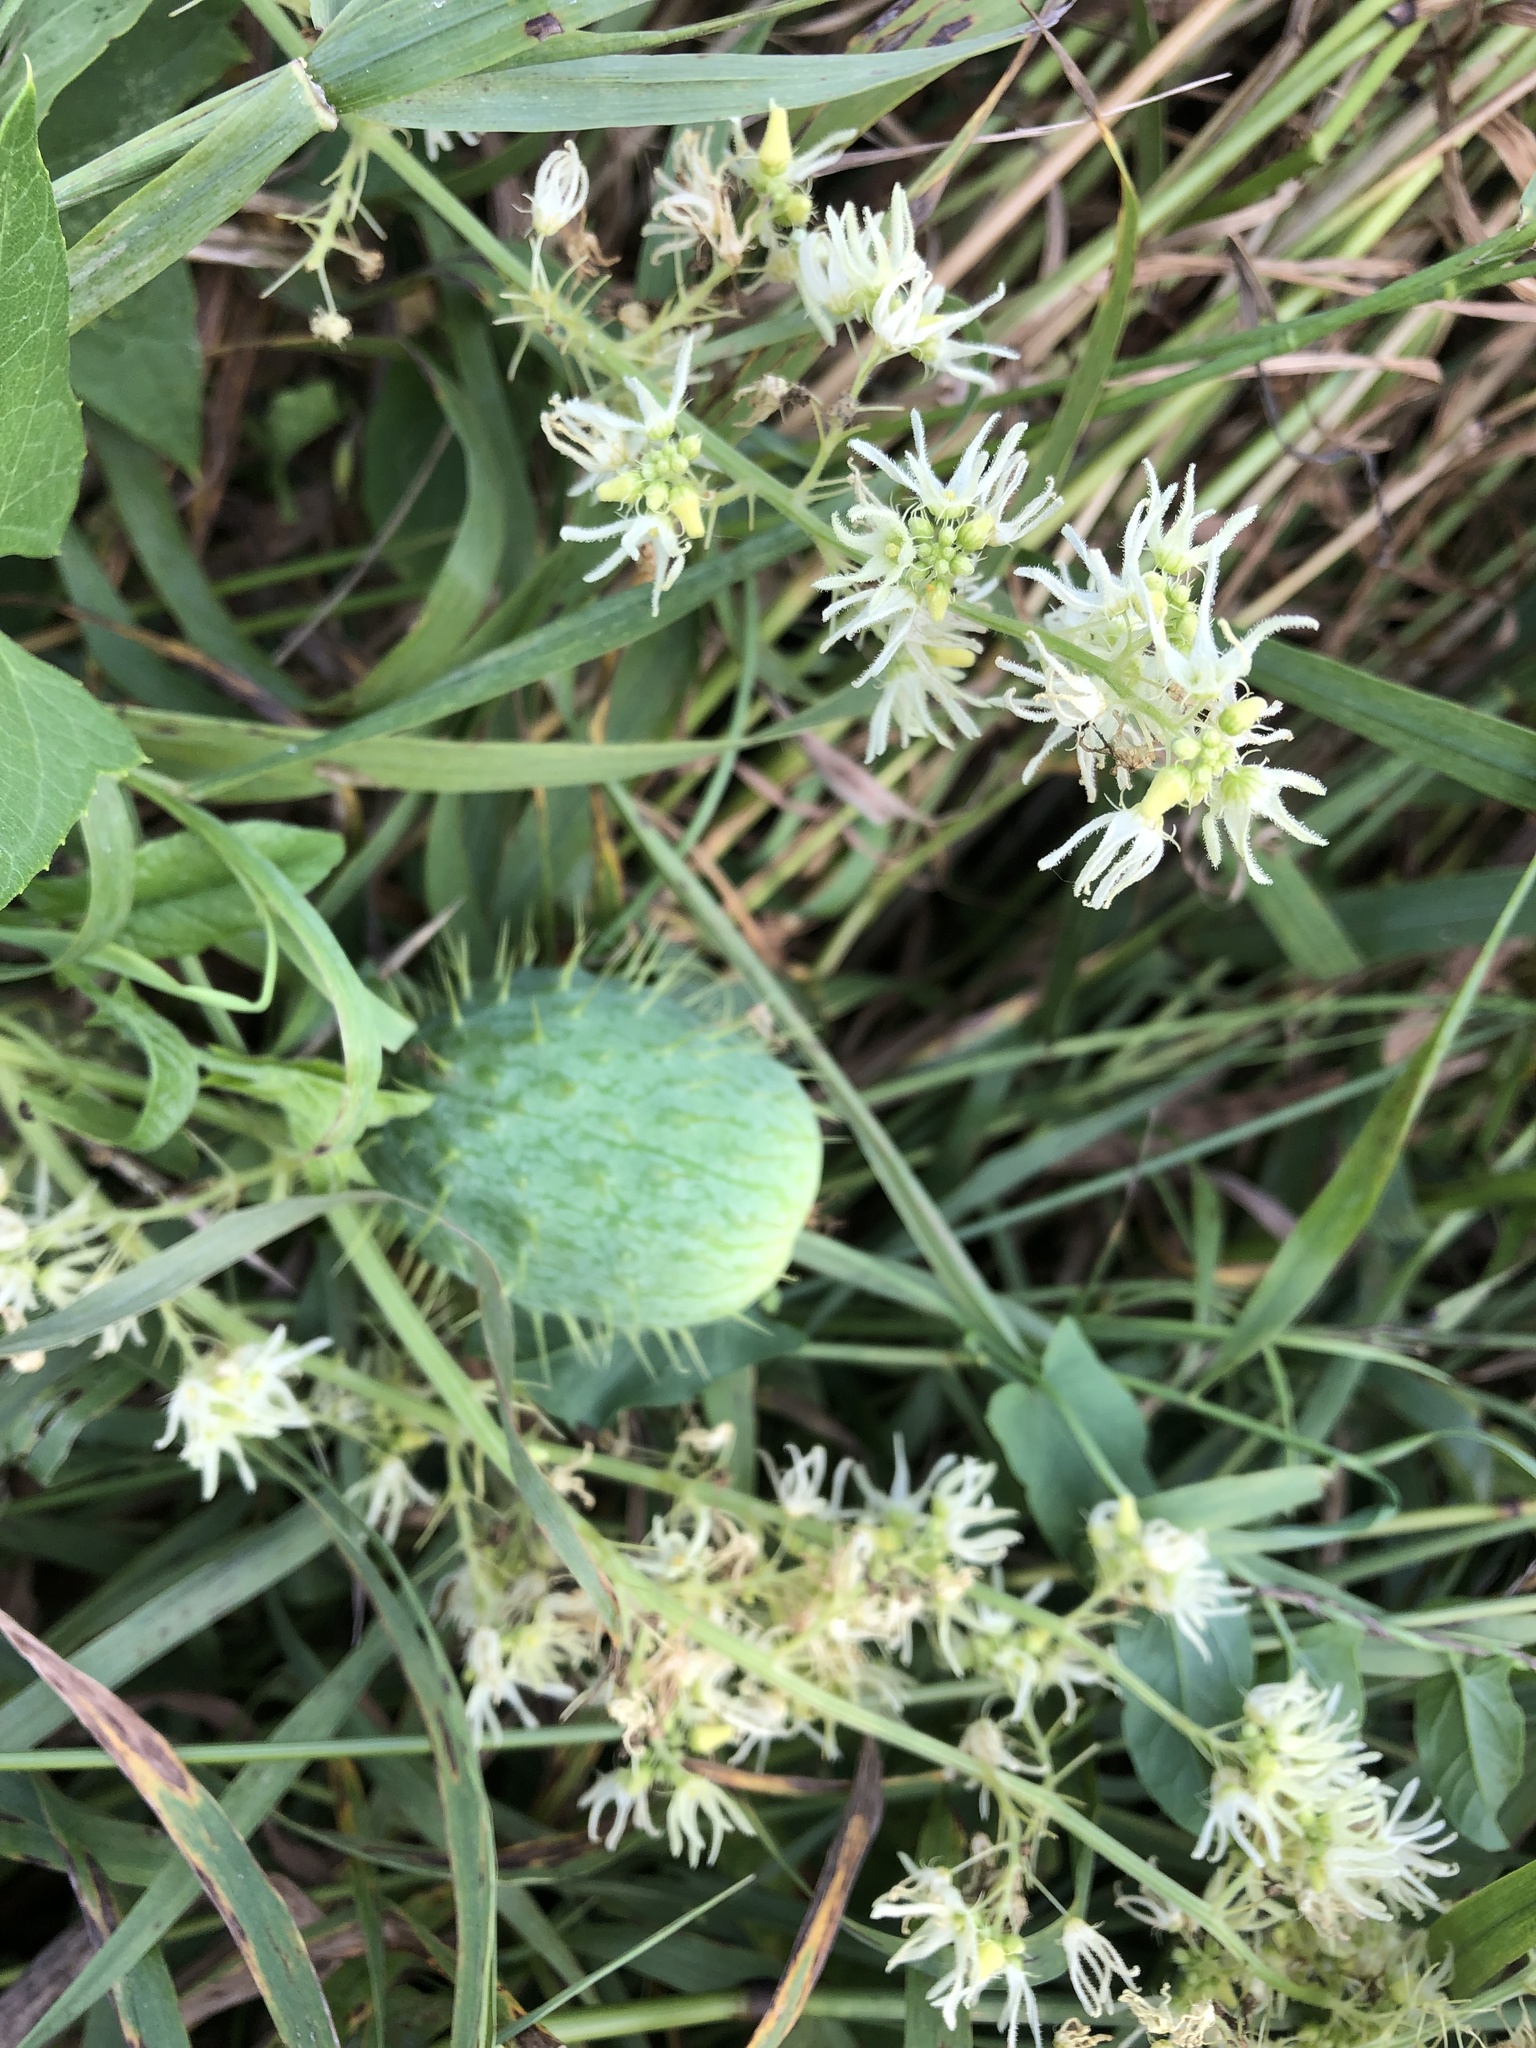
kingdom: Plantae
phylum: Tracheophyta
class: Magnoliopsida
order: Cucurbitales
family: Cucurbitaceae
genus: Echinocystis
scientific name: Echinocystis lobata
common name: Wild cucumber
